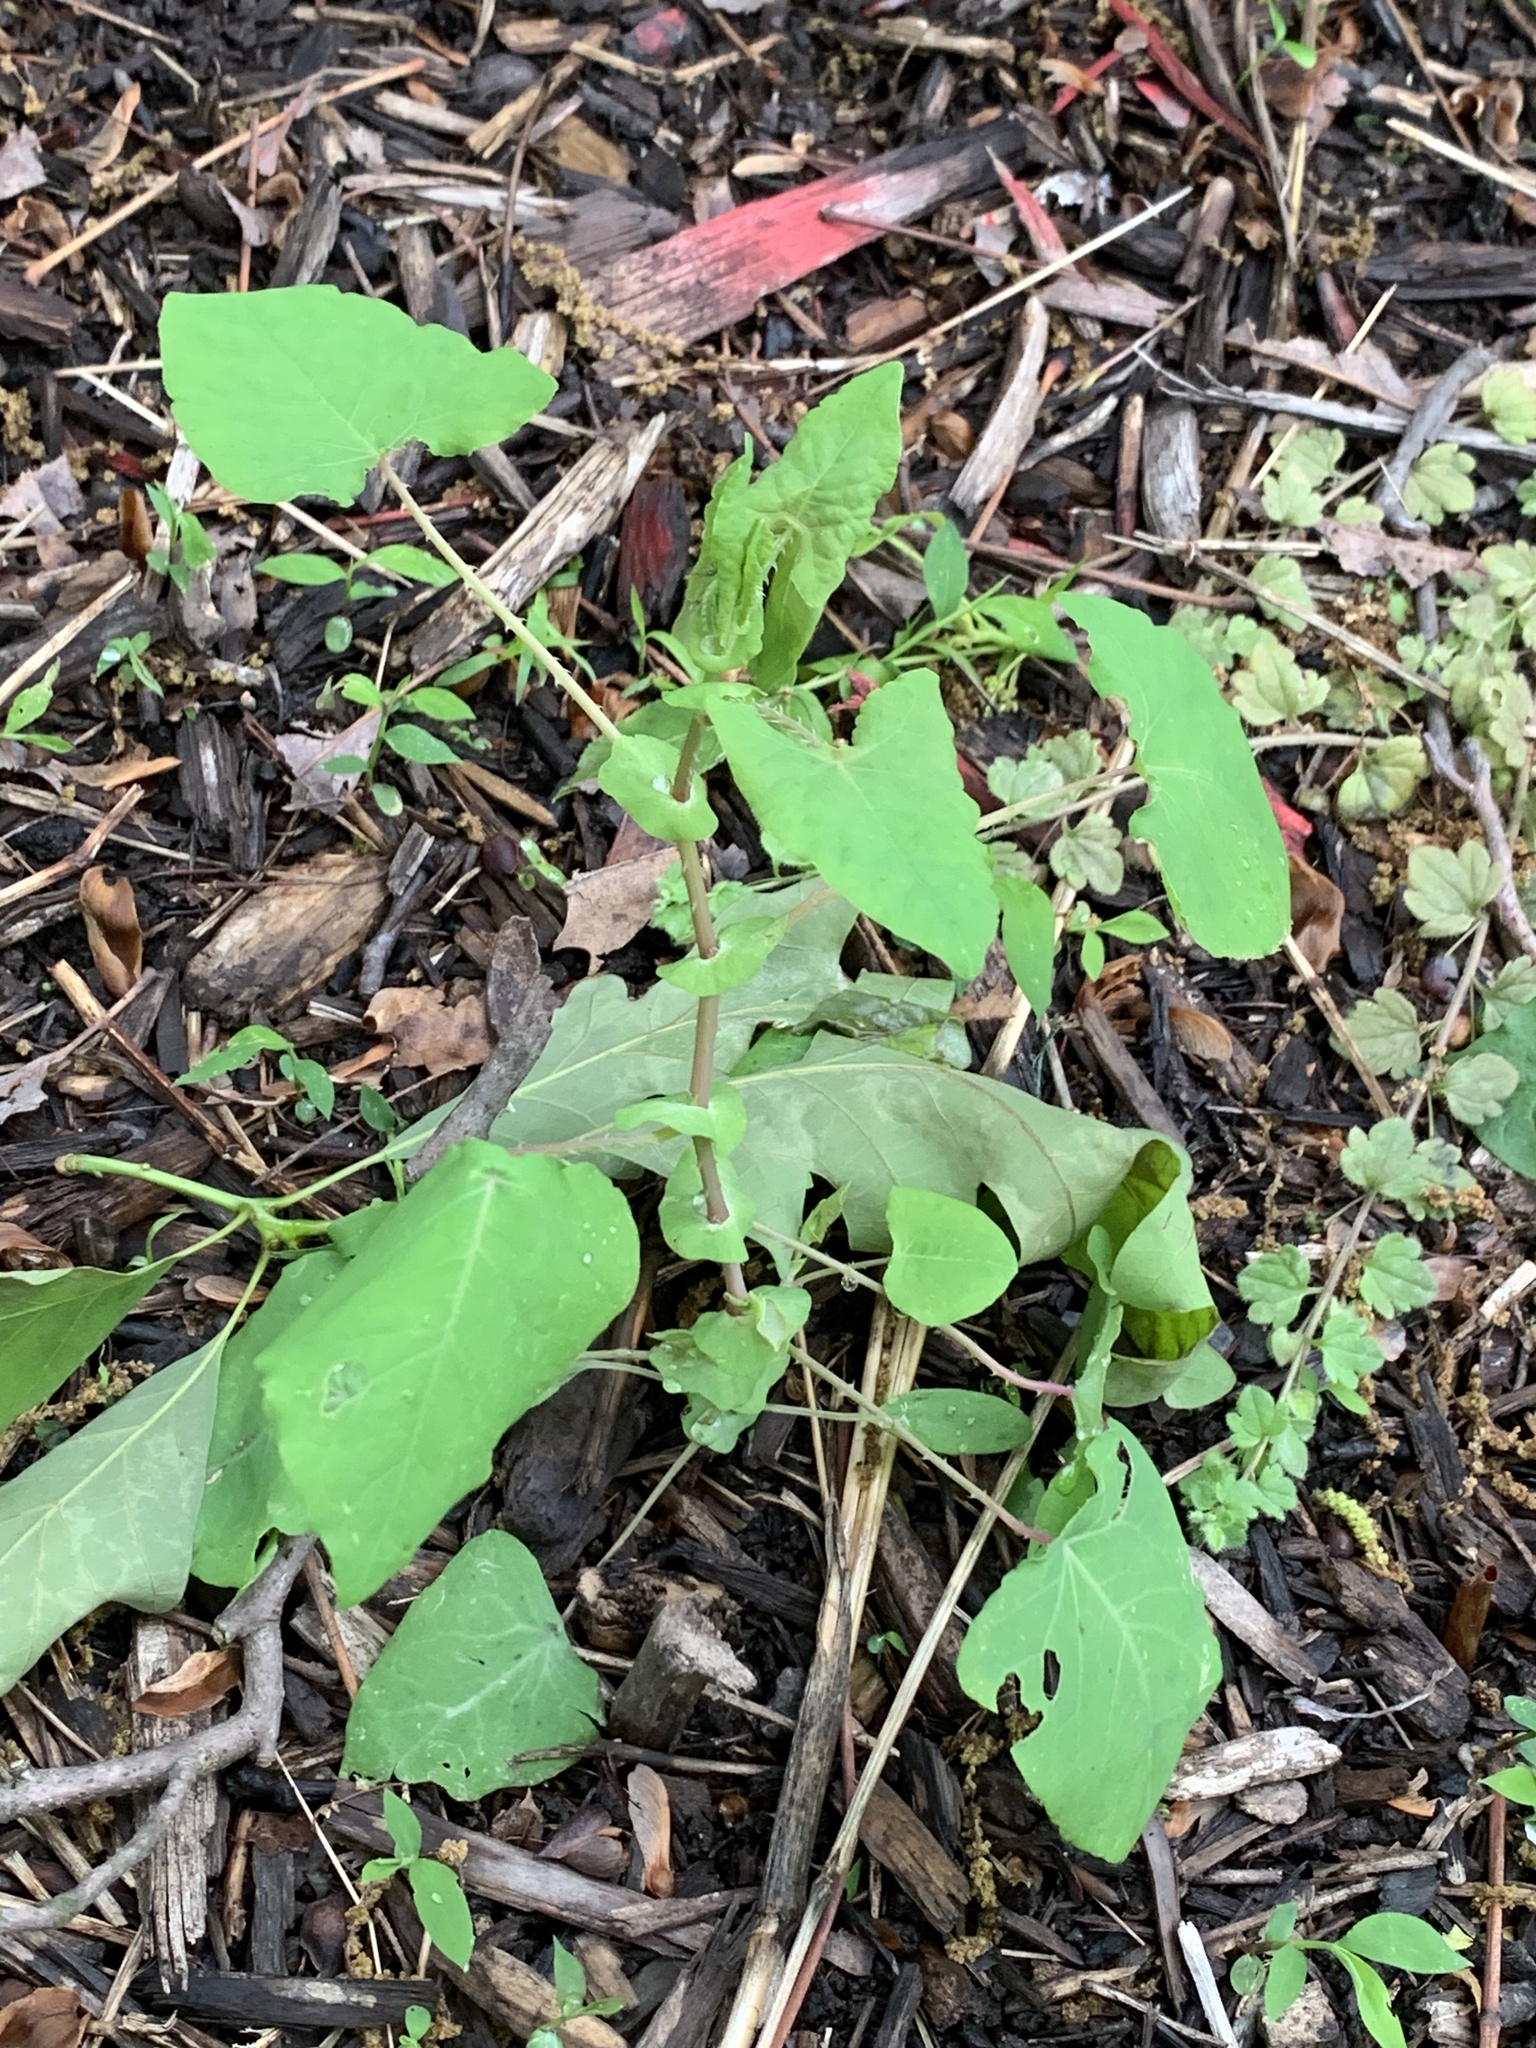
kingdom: Plantae
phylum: Tracheophyta
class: Magnoliopsida
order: Caryophyllales
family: Polygonaceae
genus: Persicaria
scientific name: Persicaria perfoliata
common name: Asiatic tearthumb
